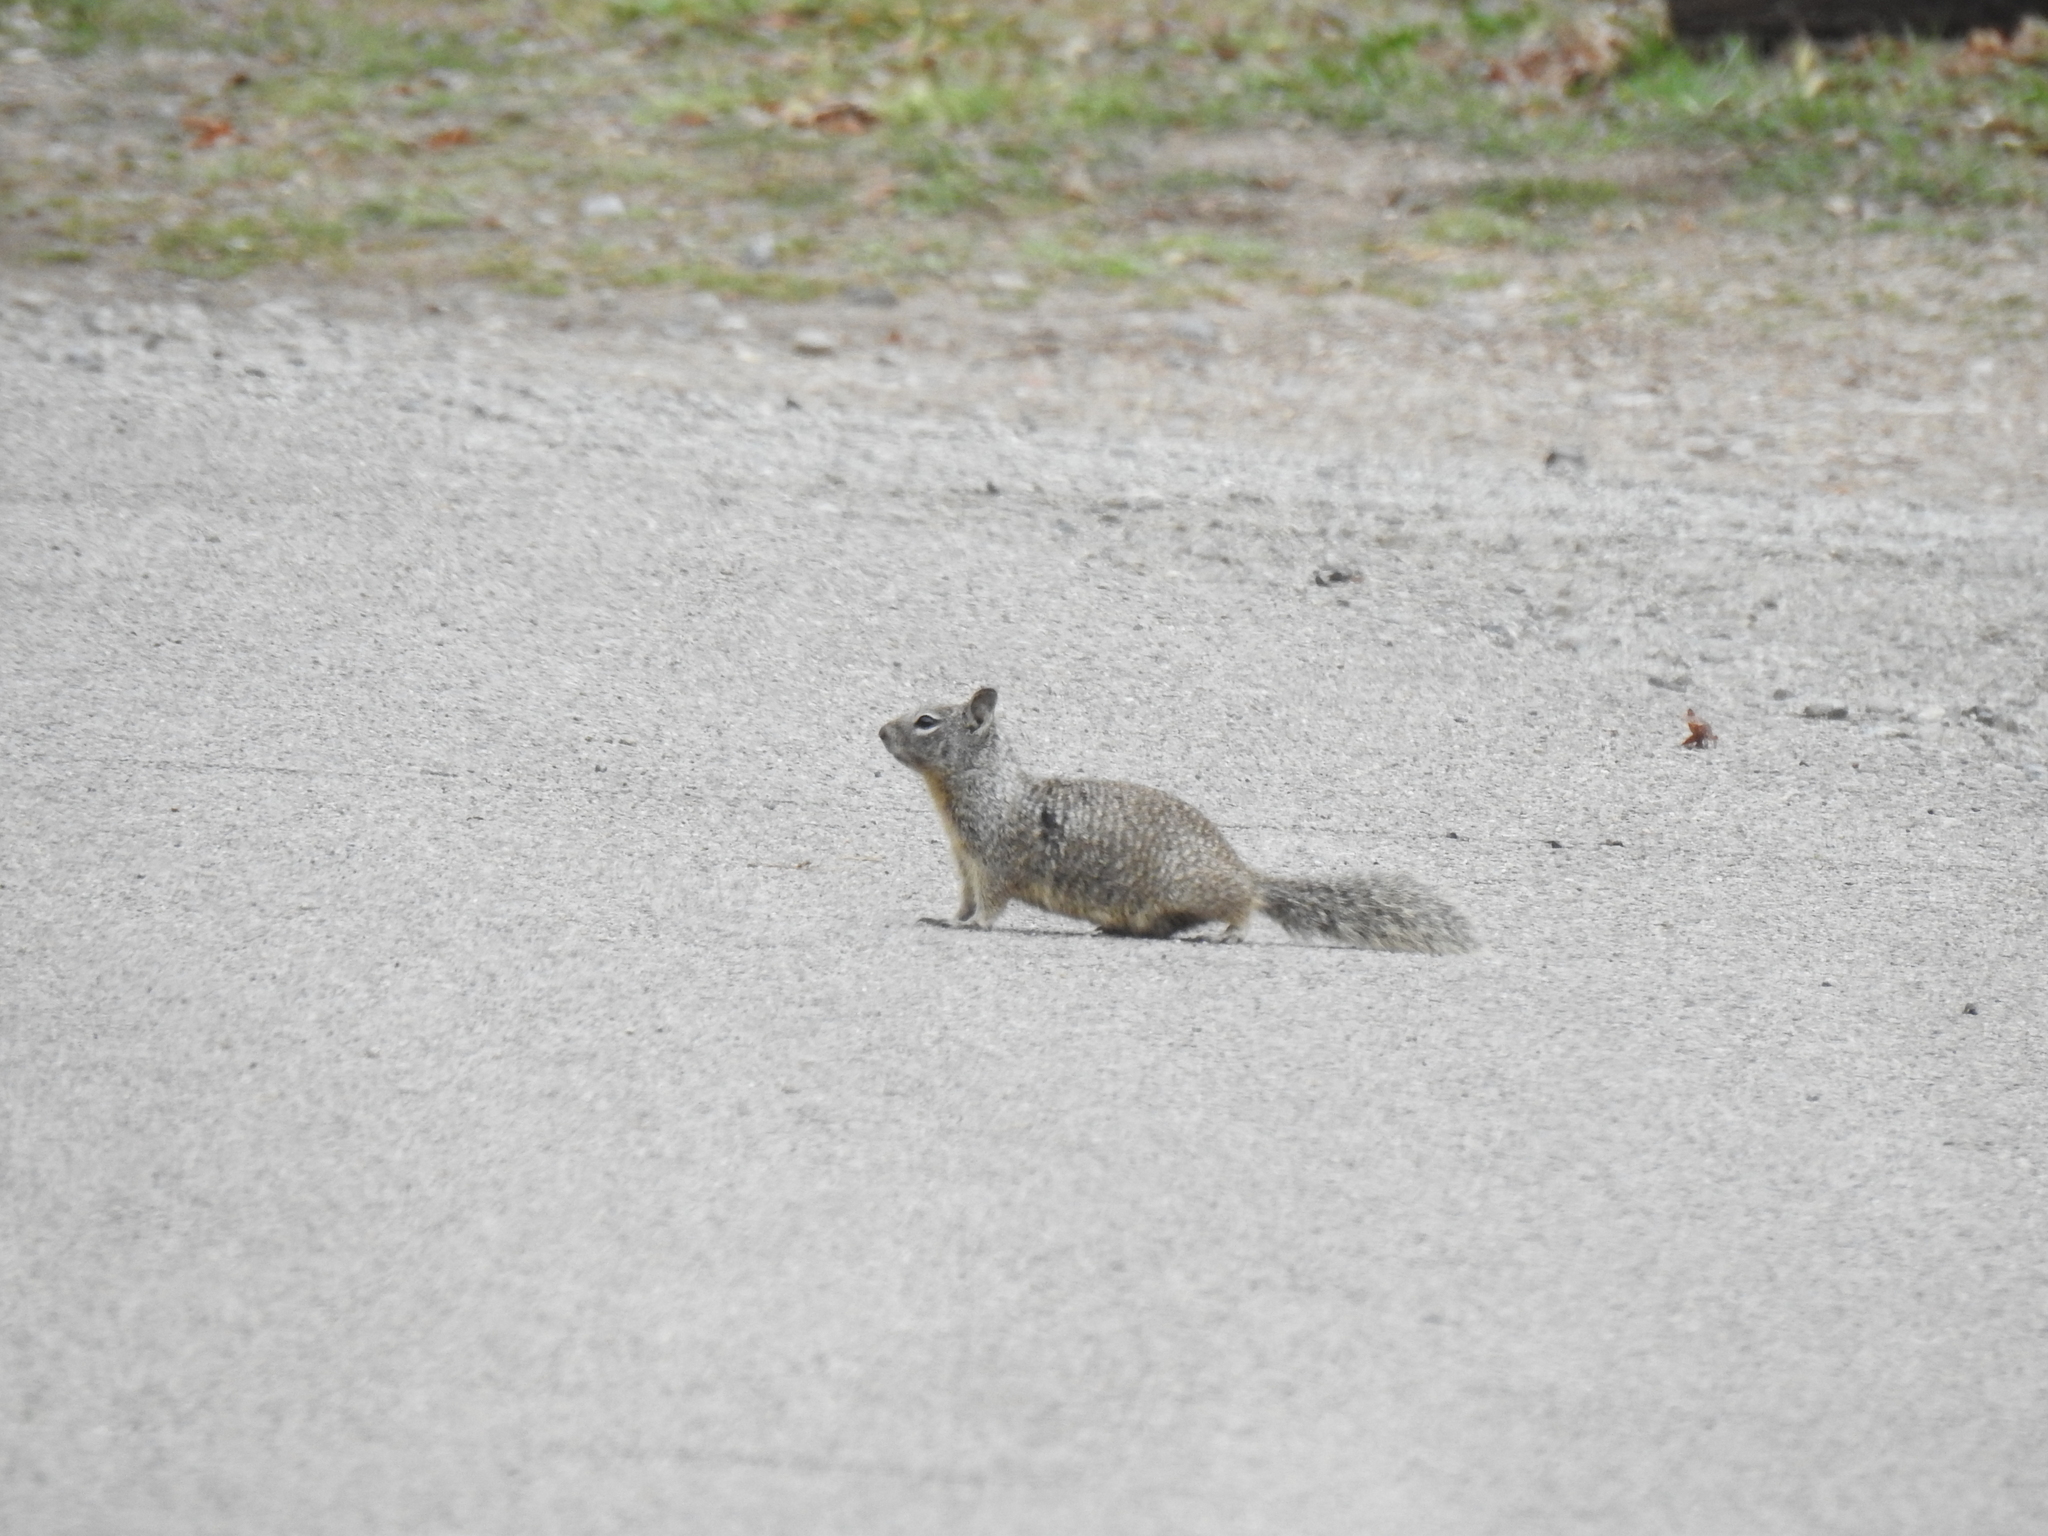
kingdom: Animalia
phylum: Chordata
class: Mammalia
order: Rodentia
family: Sciuridae
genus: Otospermophilus
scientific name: Otospermophilus beecheyi
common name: California ground squirrel
